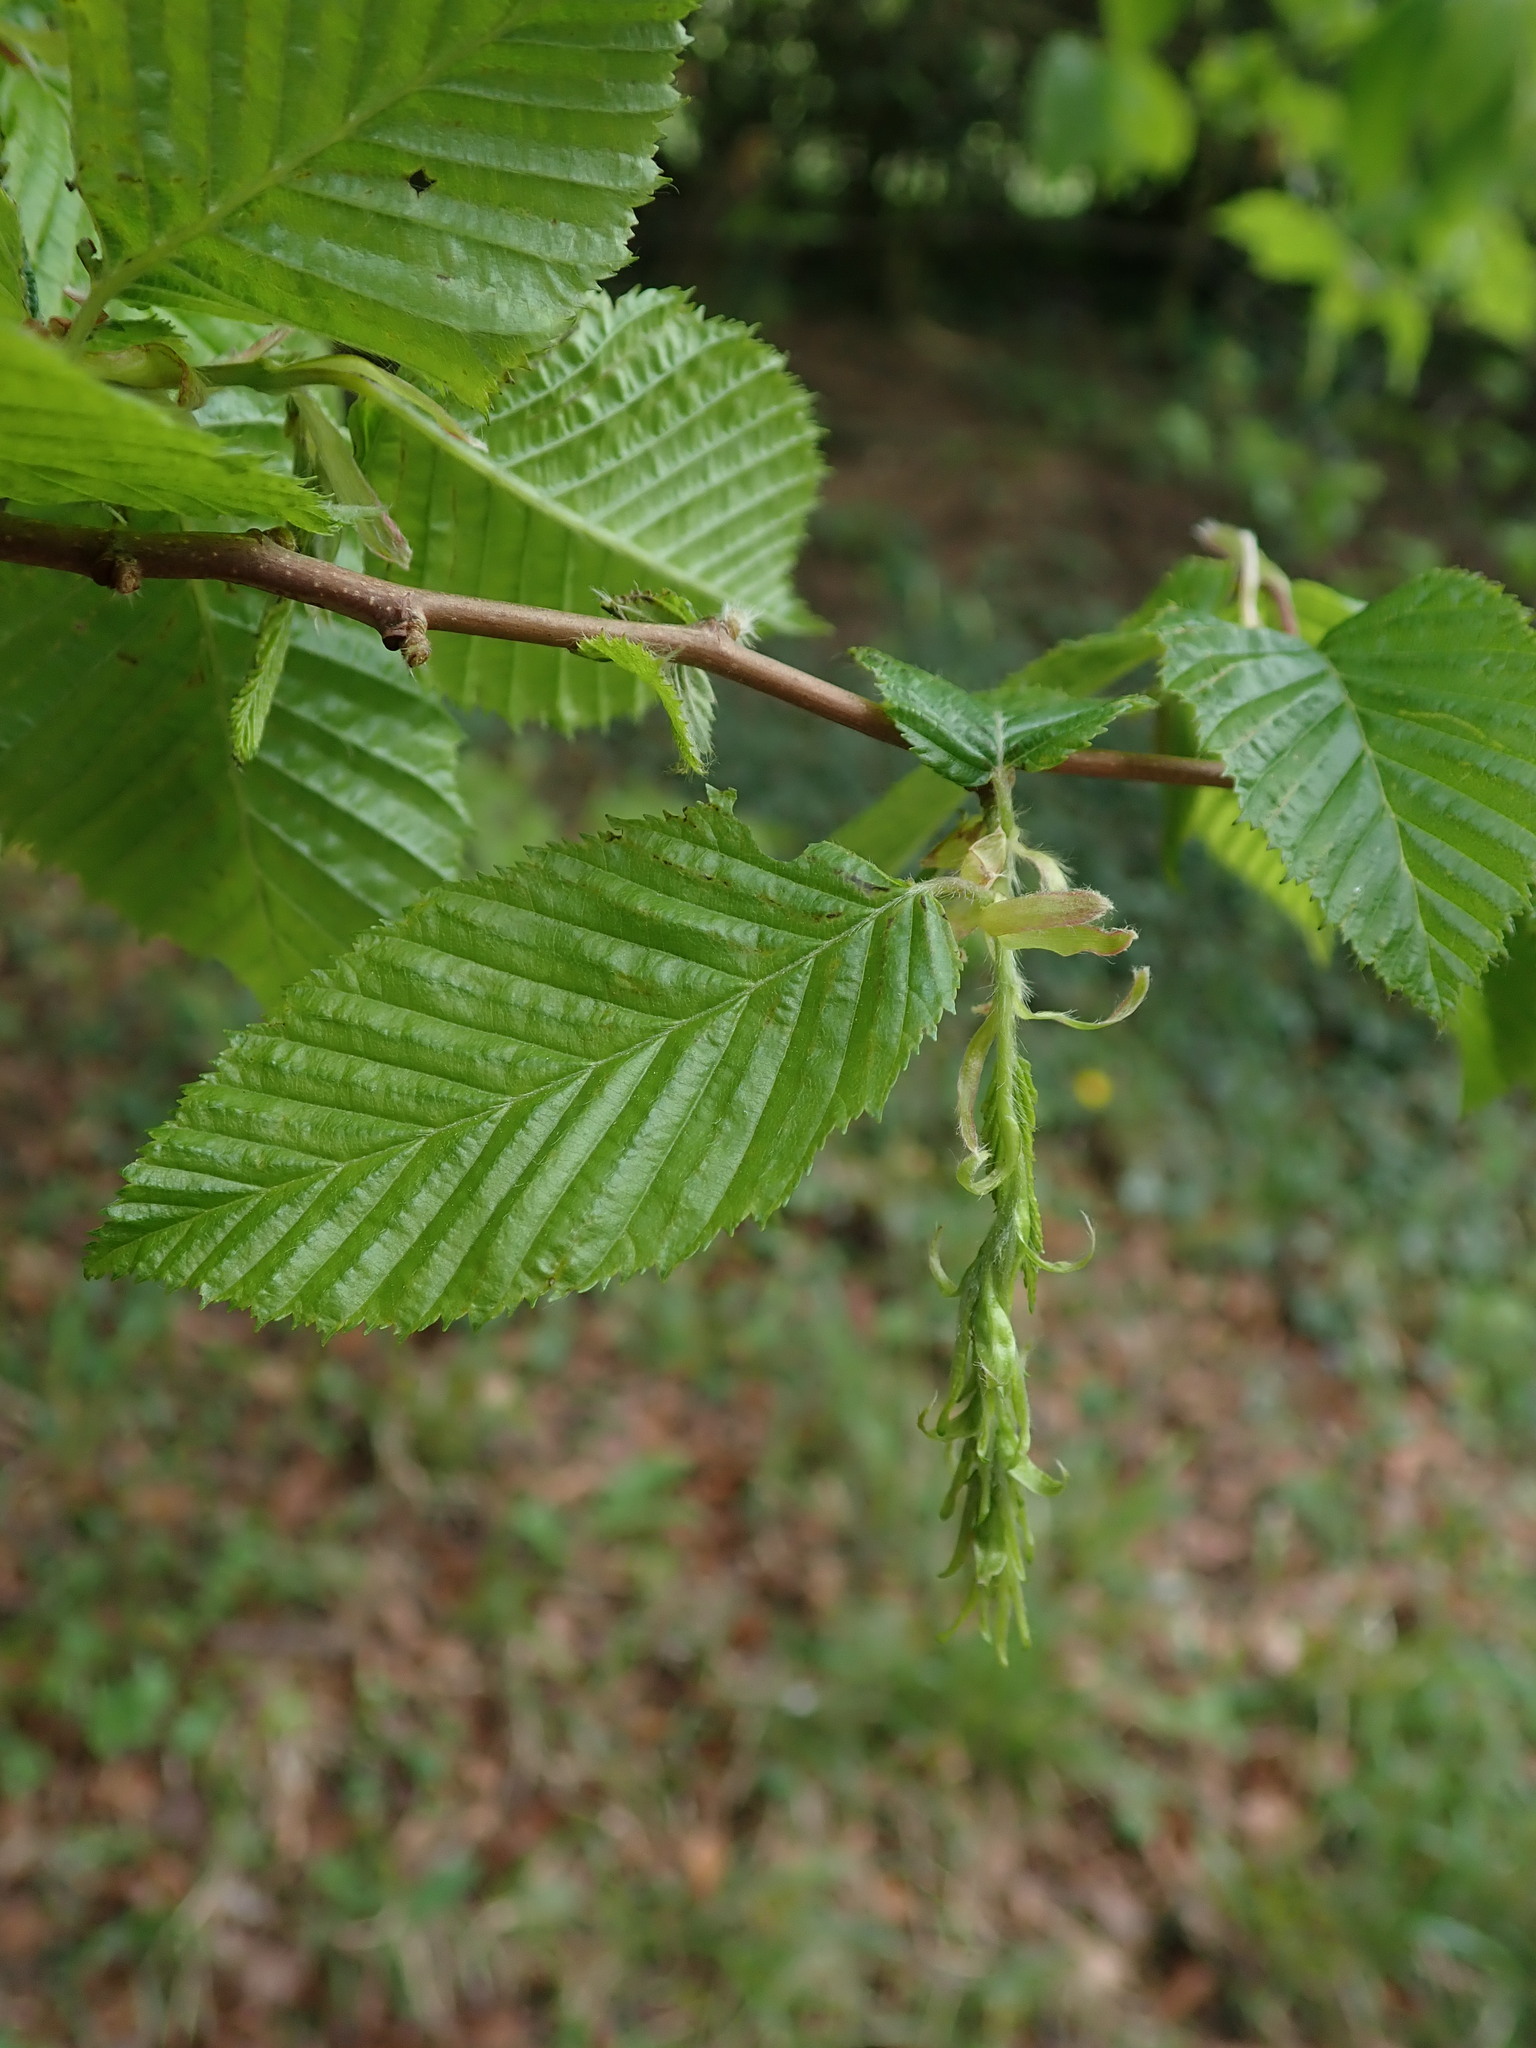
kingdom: Plantae
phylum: Tracheophyta
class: Magnoliopsida
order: Fagales
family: Betulaceae
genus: Carpinus
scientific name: Carpinus betulus
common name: Hornbeam
